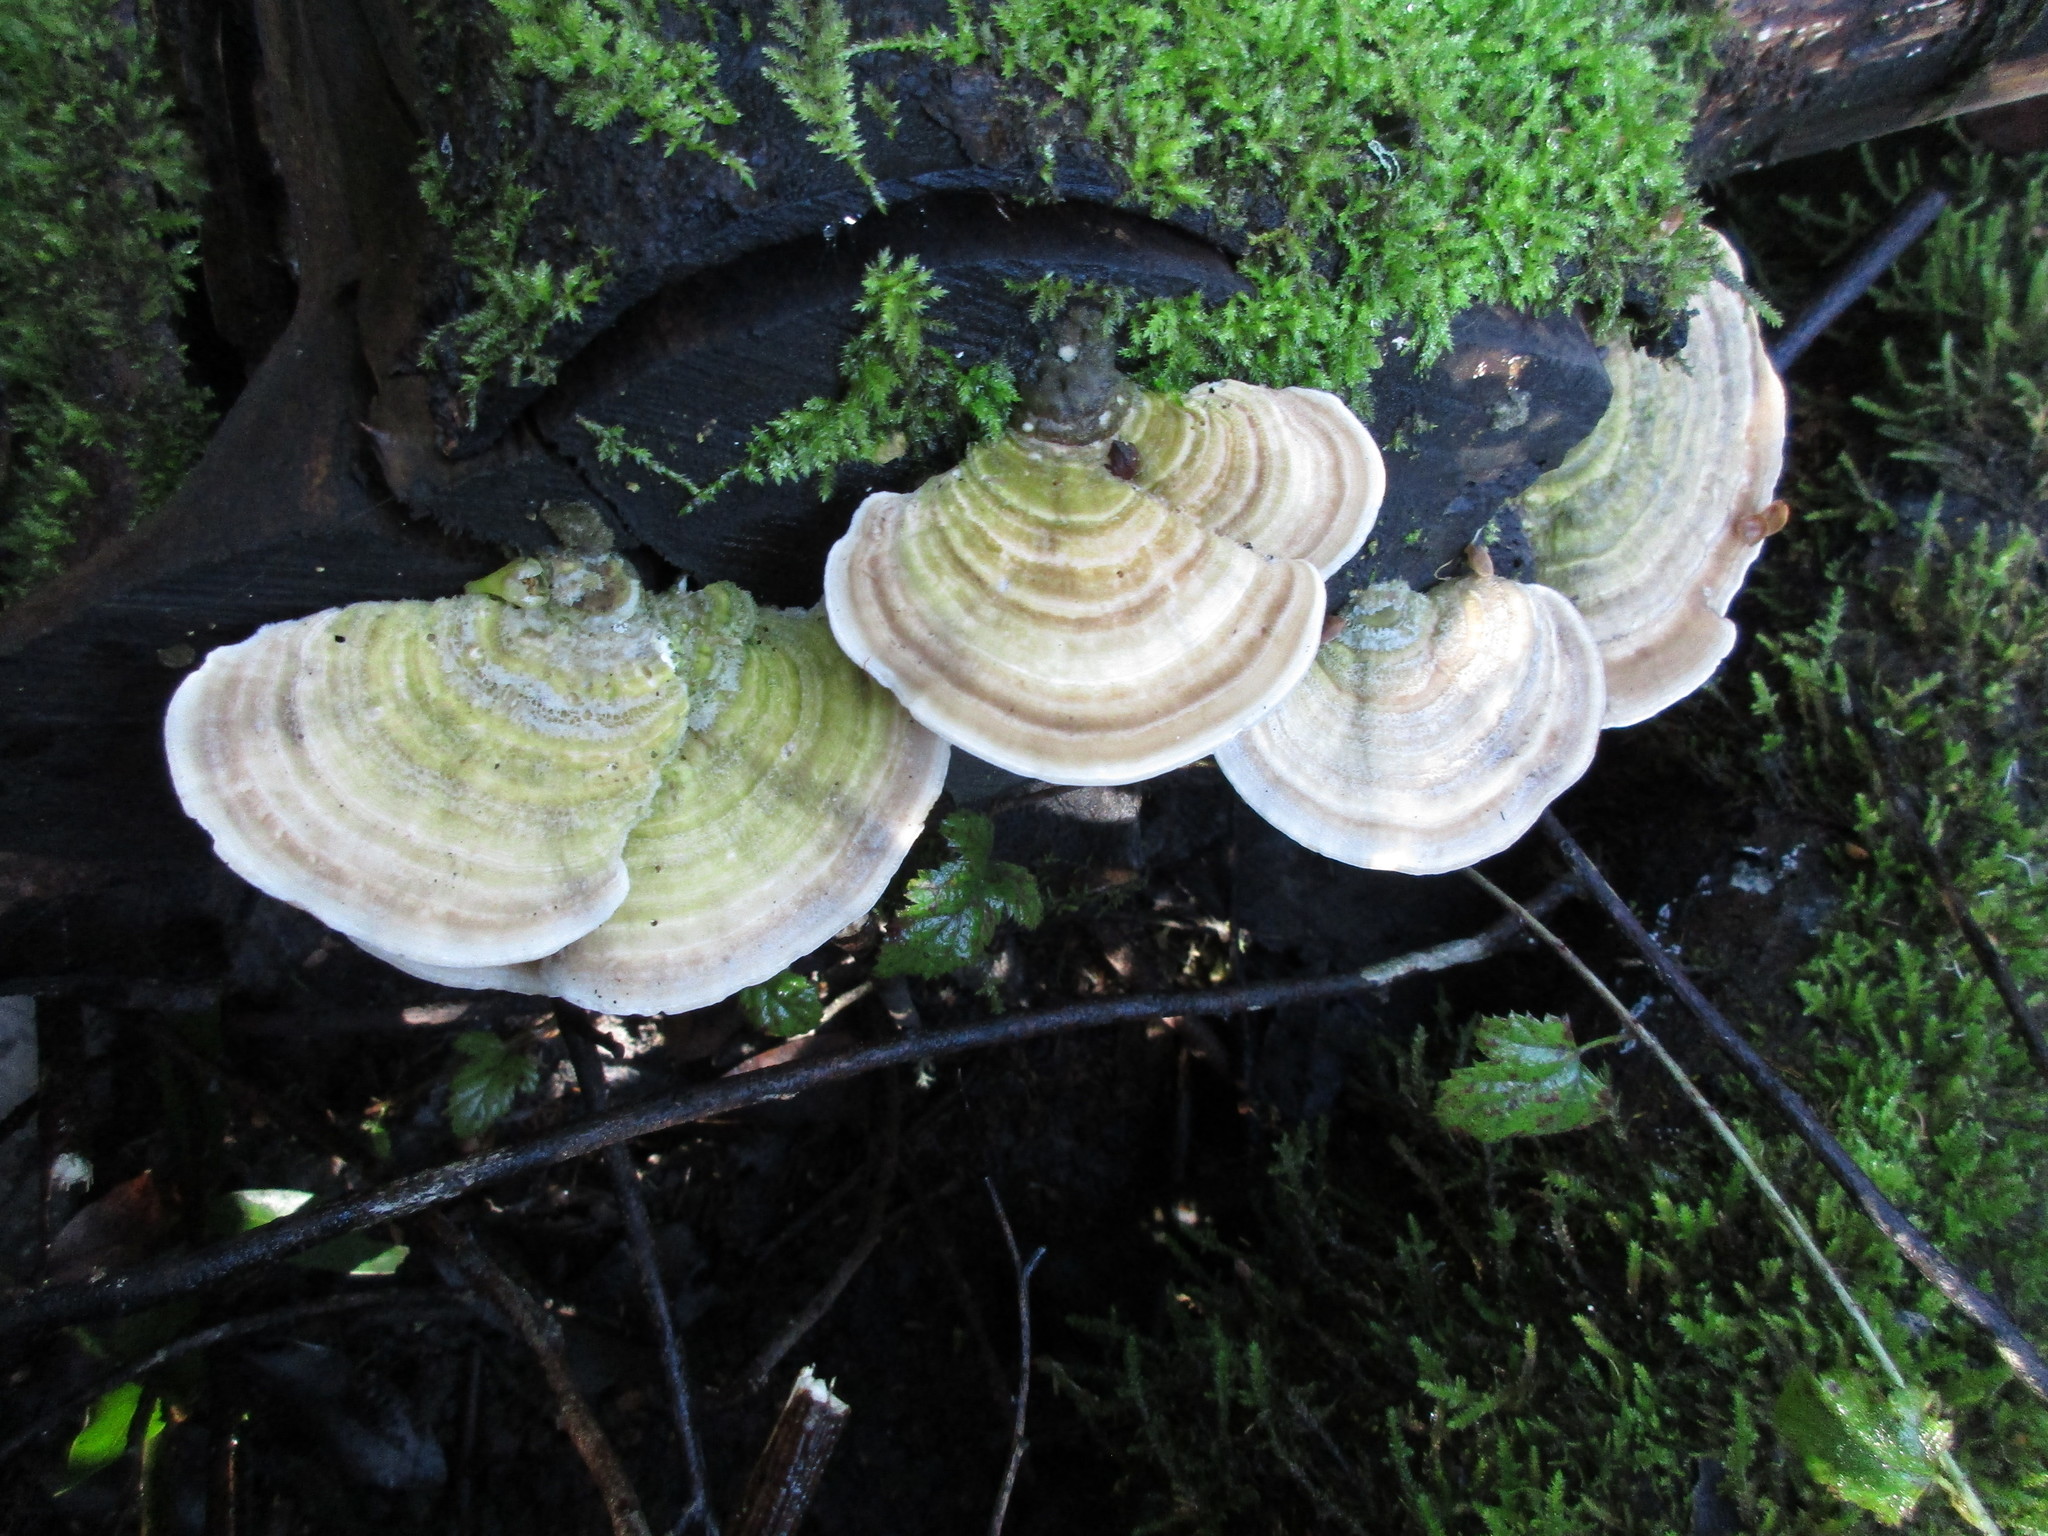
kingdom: Fungi
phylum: Basidiomycota
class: Agaricomycetes
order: Polyporales
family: Polyporaceae
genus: Lenzites
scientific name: Lenzites betulinus
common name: Birch mazegill
